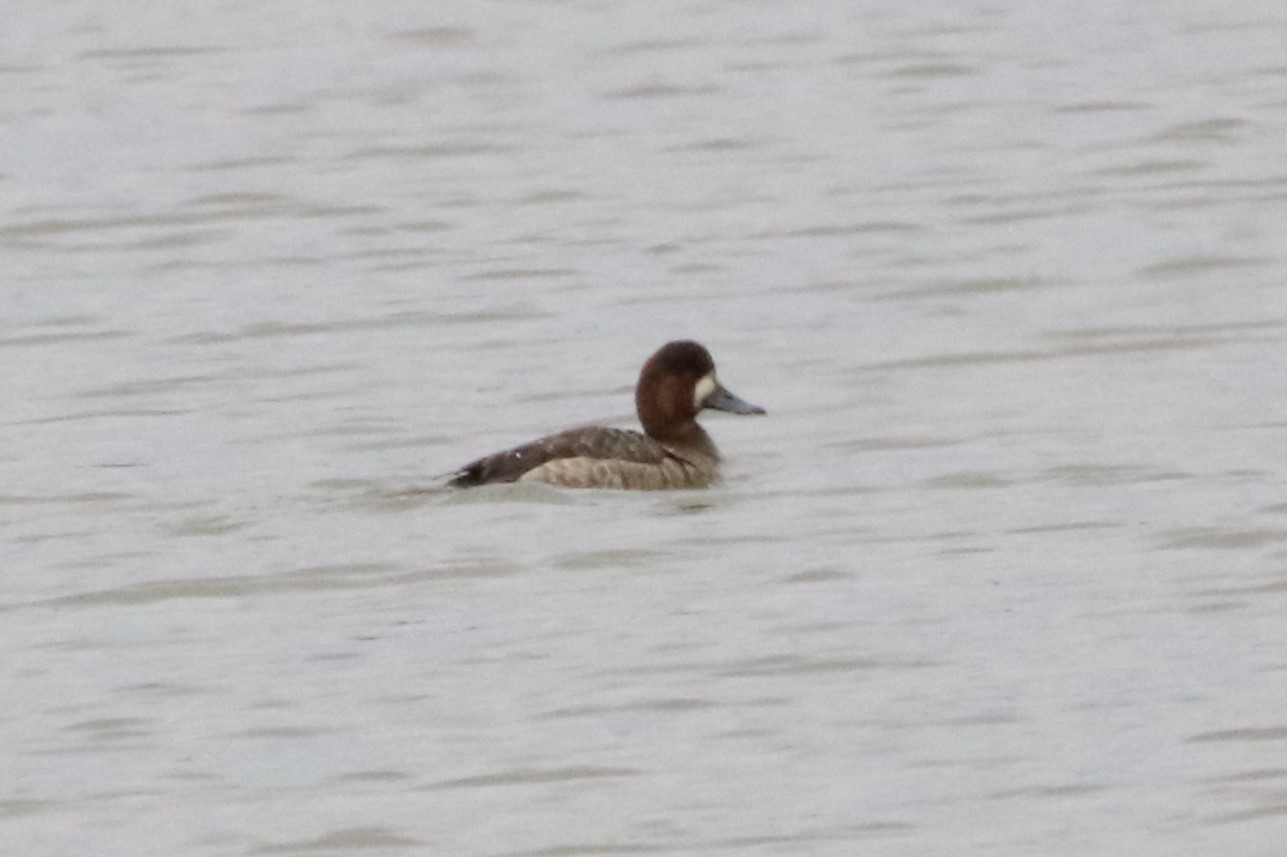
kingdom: Animalia
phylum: Chordata
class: Aves
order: Anseriformes
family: Anatidae
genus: Aythya
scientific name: Aythya affinis
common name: Lesser scaup
